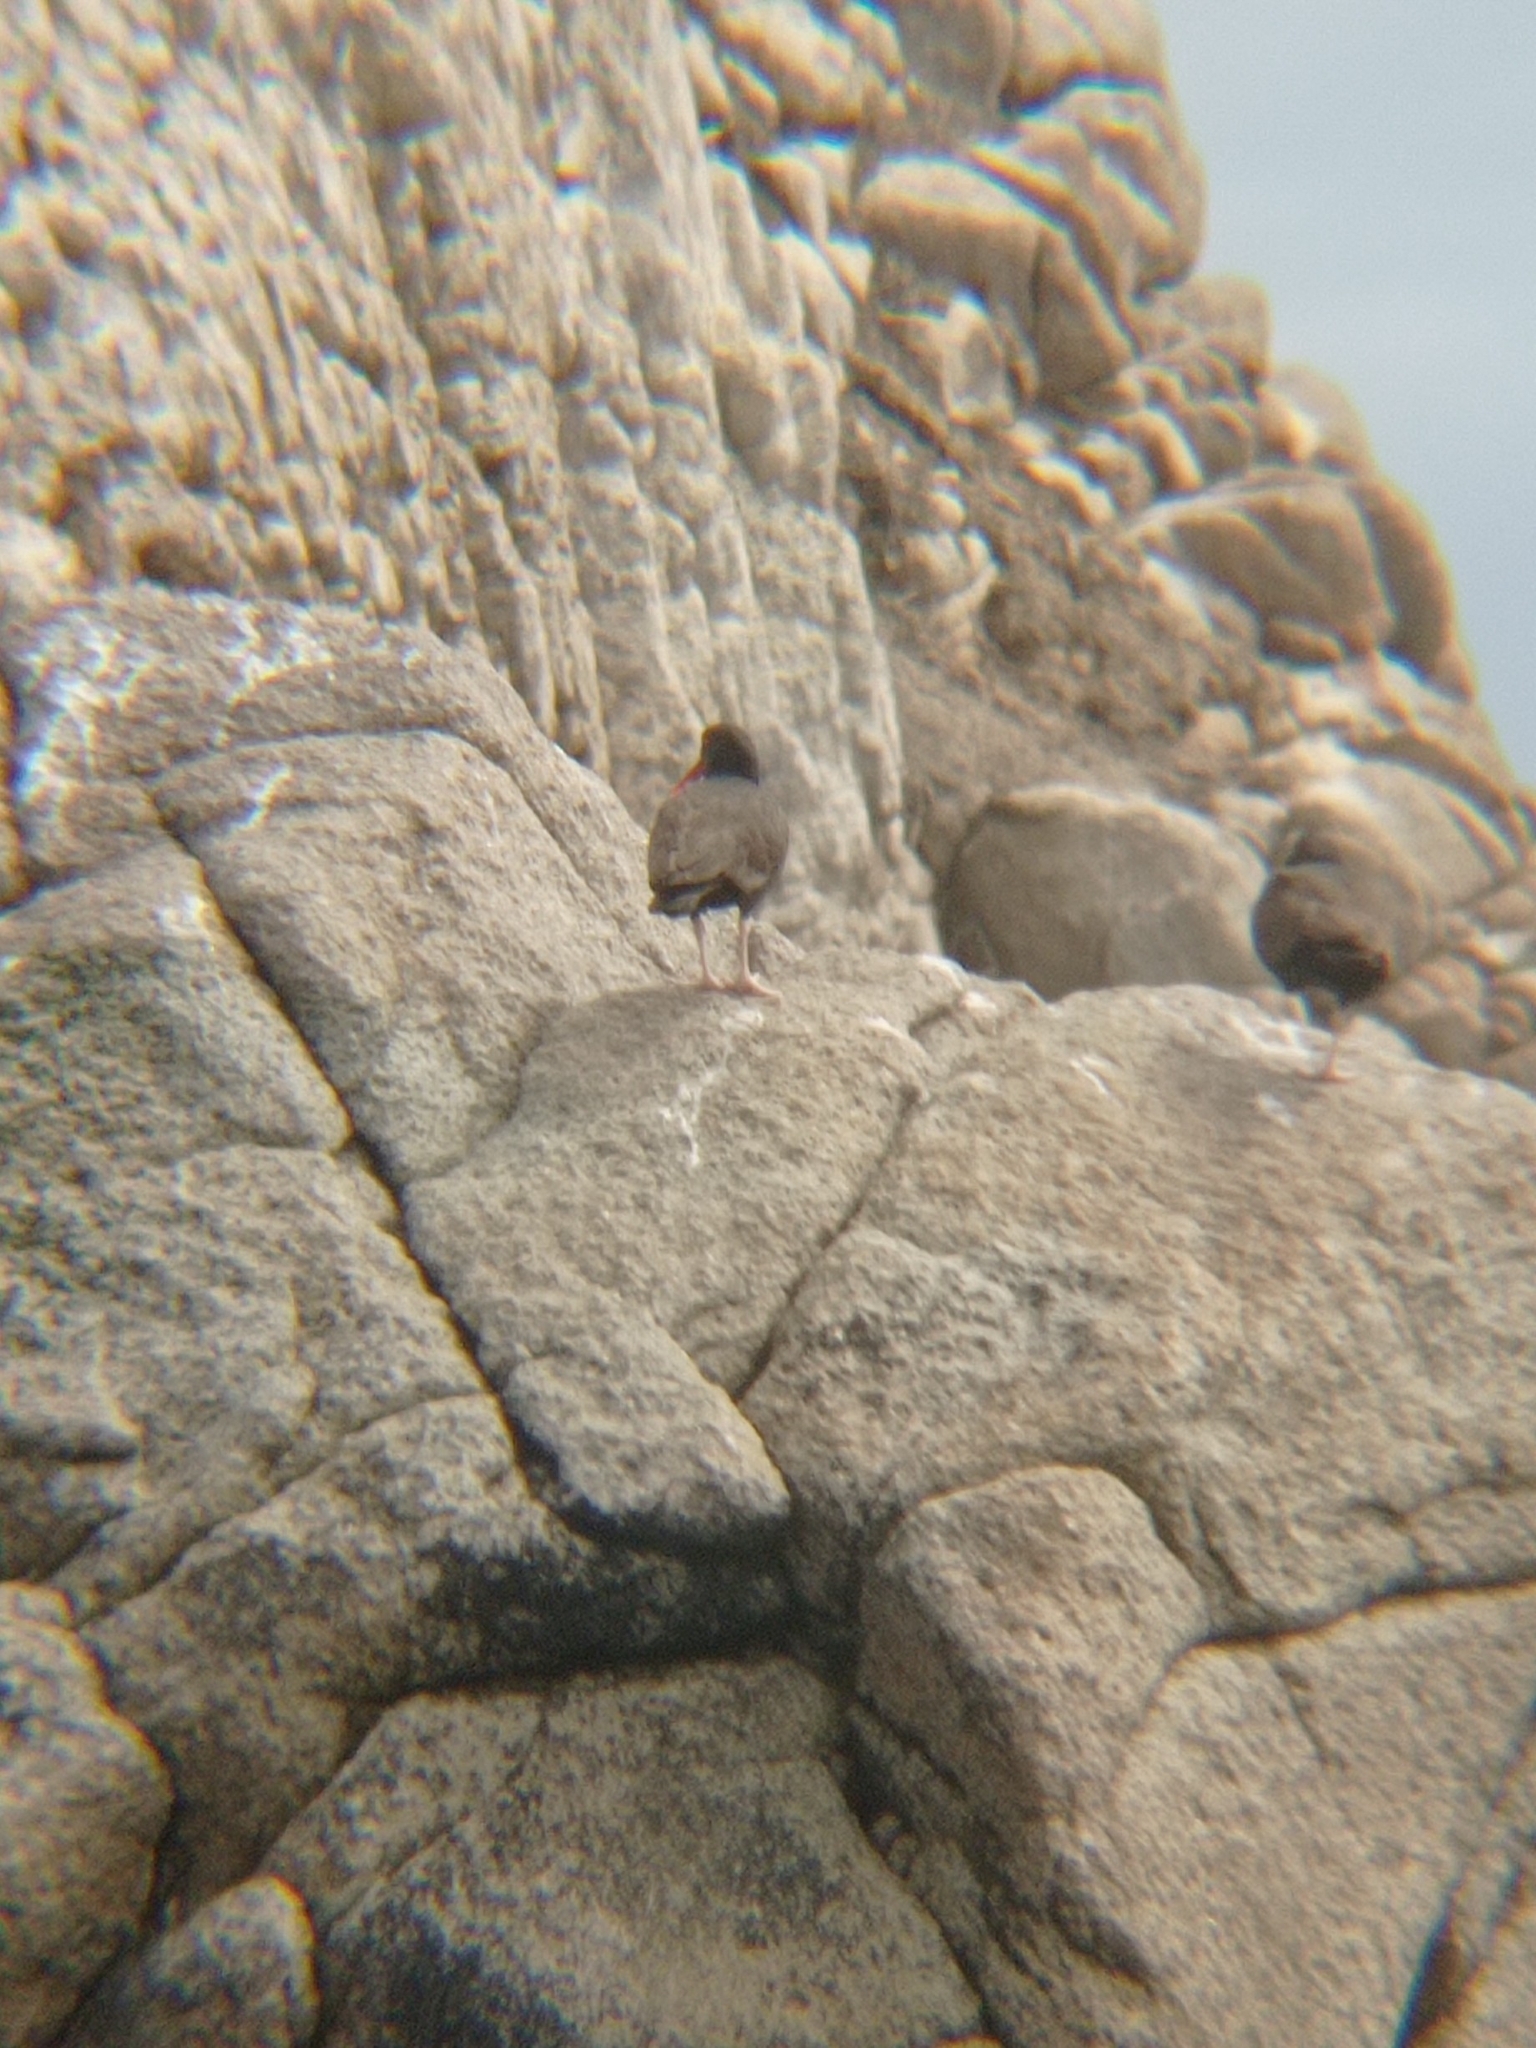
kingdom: Animalia
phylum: Chordata
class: Aves
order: Charadriiformes
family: Haematopodidae
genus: Haematopus
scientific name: Haematopus ater
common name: Blackish oystercatcher
